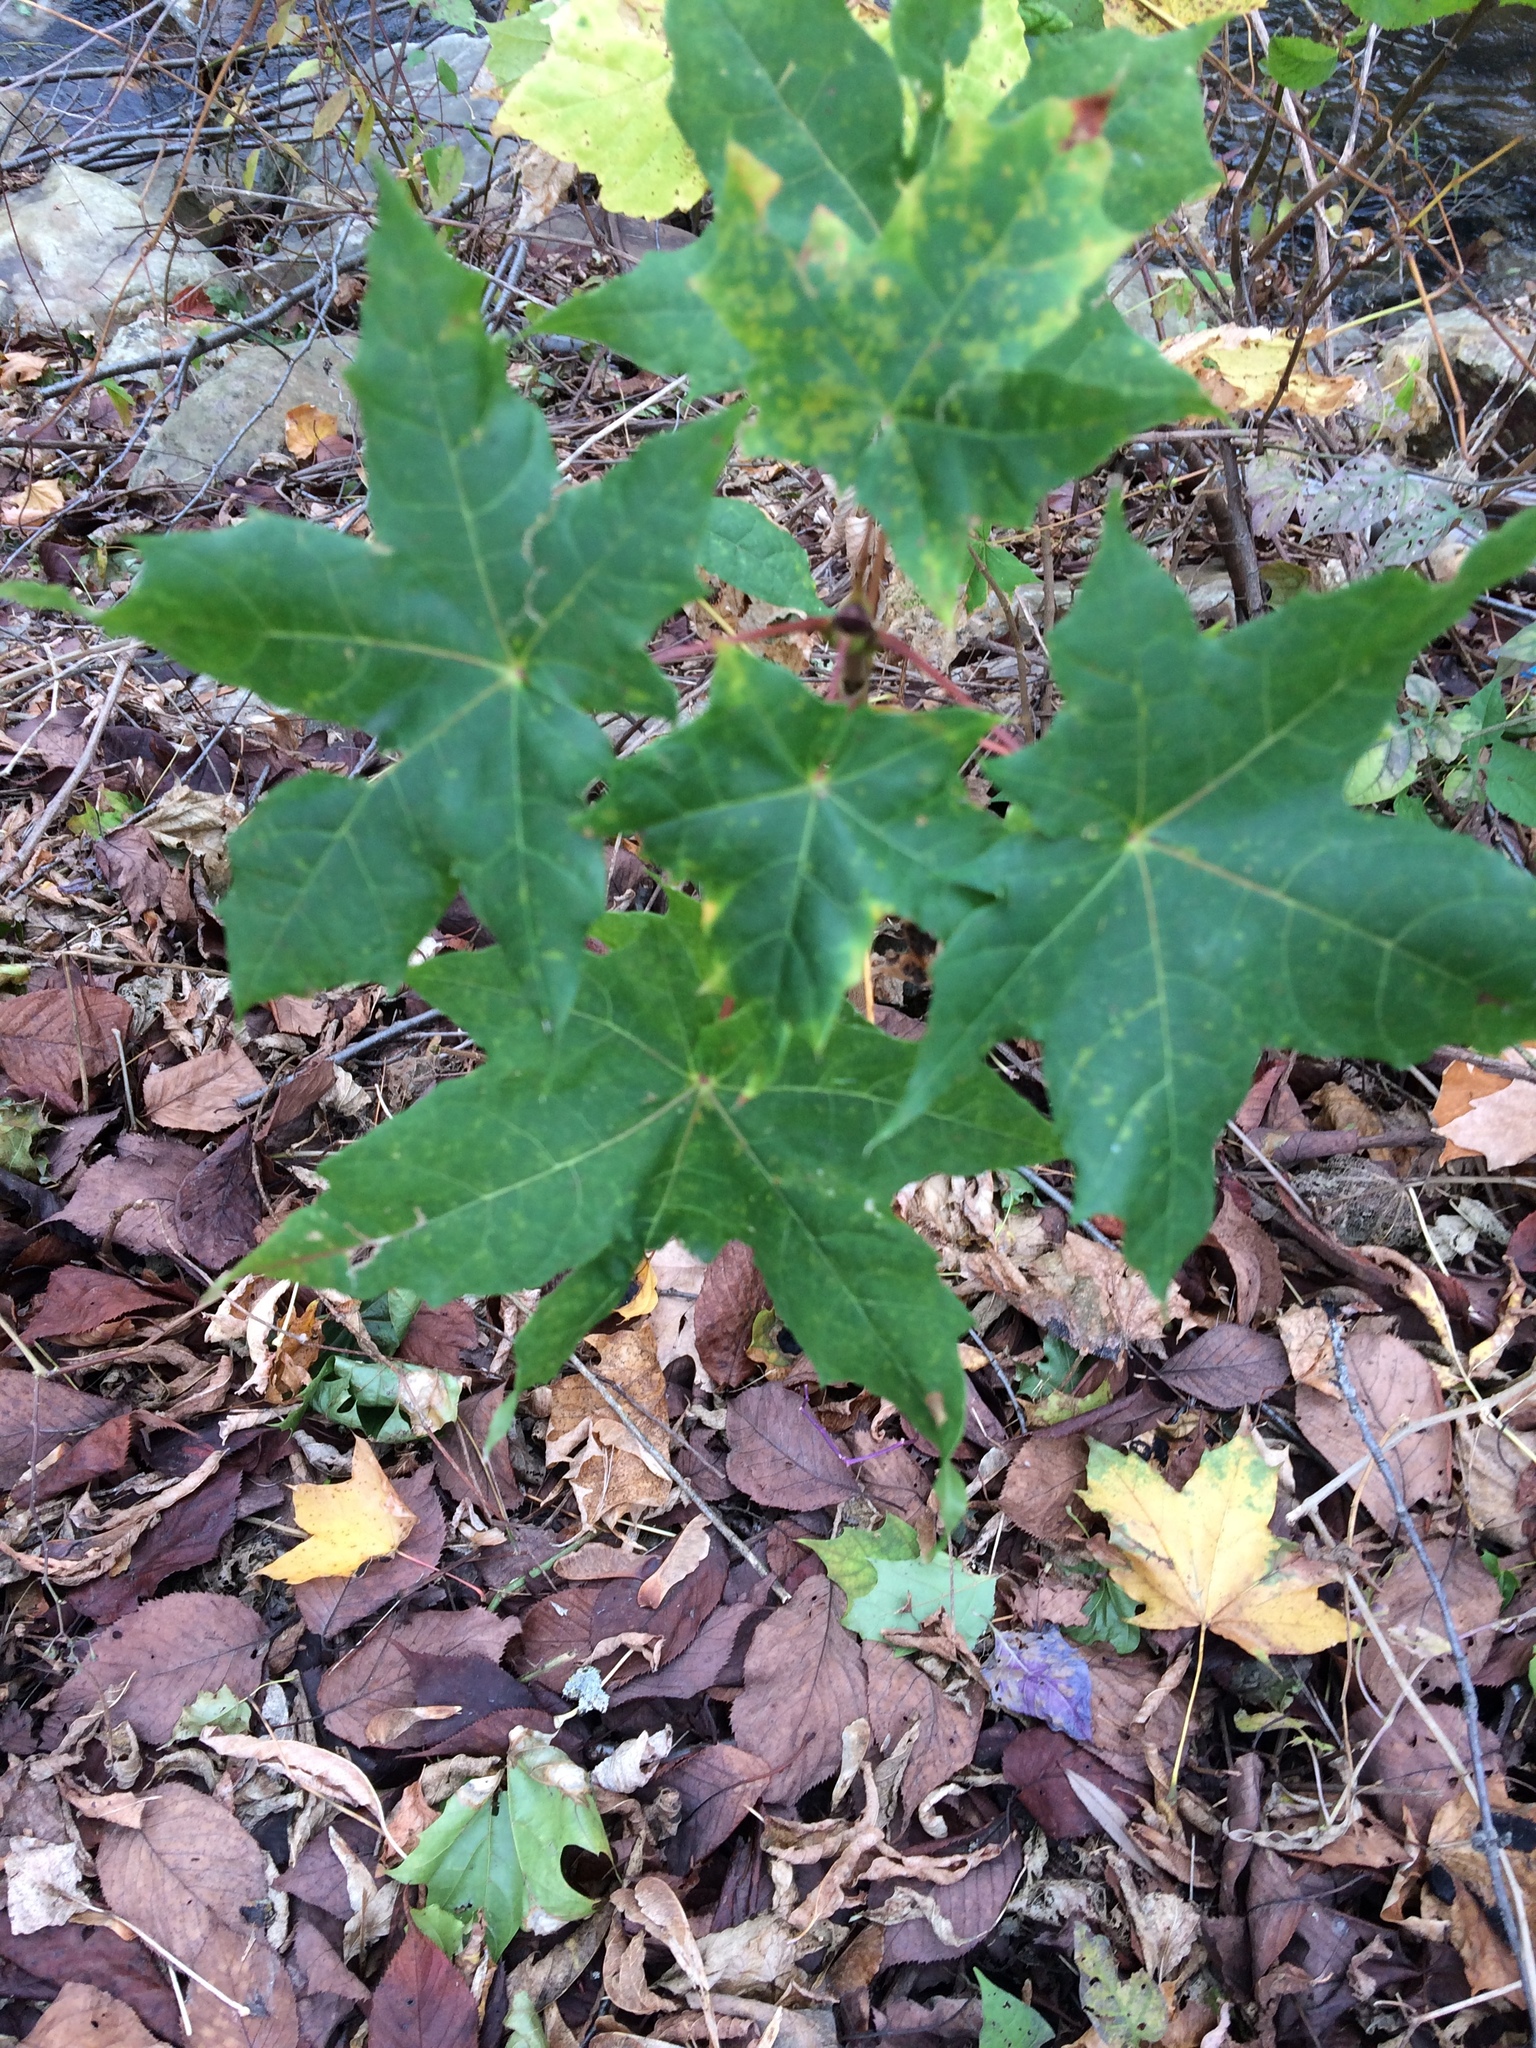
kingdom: Plantae
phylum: Tracheophyta
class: Magnoliopsida
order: Sapindales
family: Sapindaceae
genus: Acer
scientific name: Acer platanoides
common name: Norway maple
